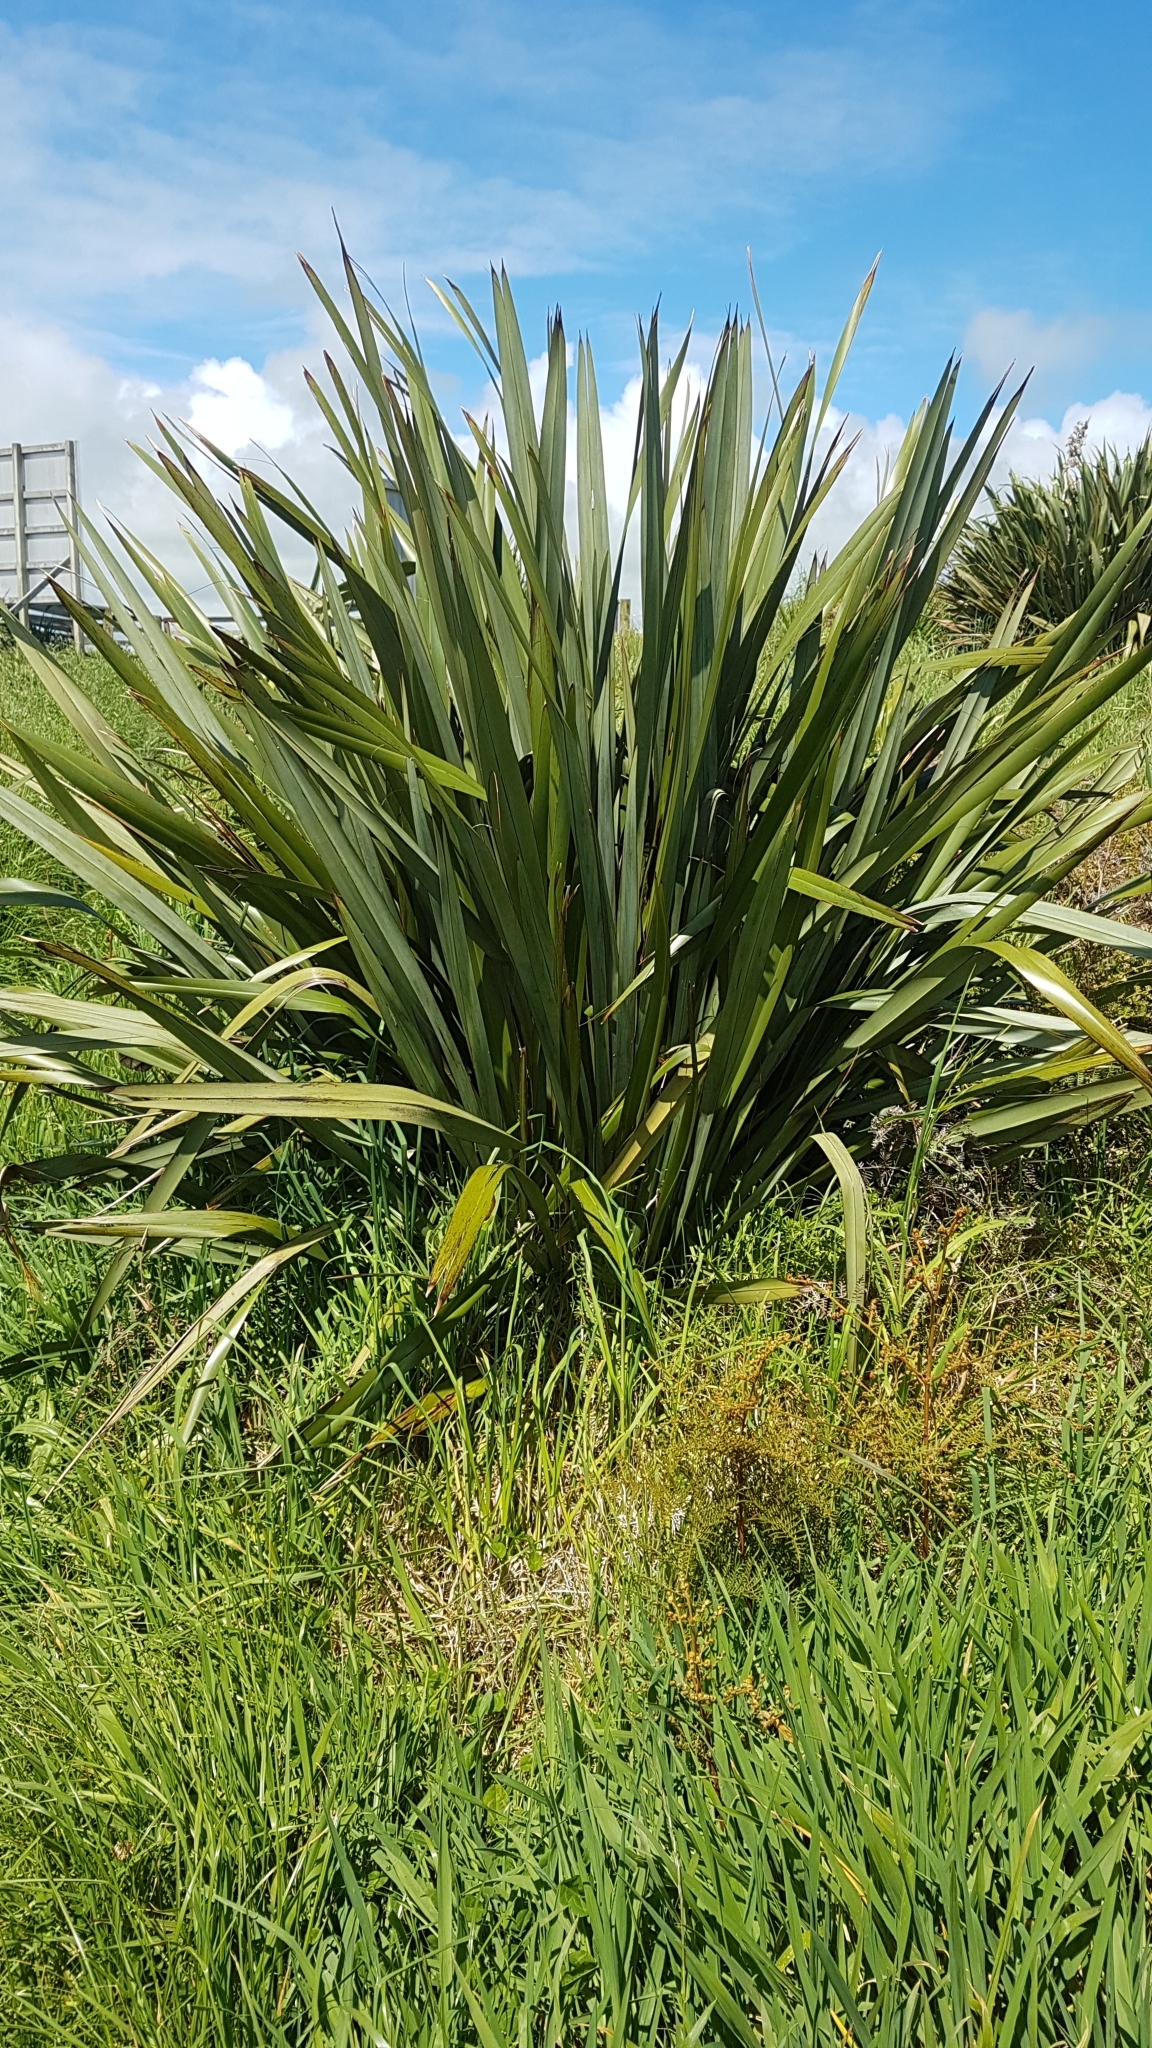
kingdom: Plantae
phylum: Tracheophyta
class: Liliopsida
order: Asparagales
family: Asphodelaceae
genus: Phormium
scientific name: Phormium tenax
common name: New zealand flax
